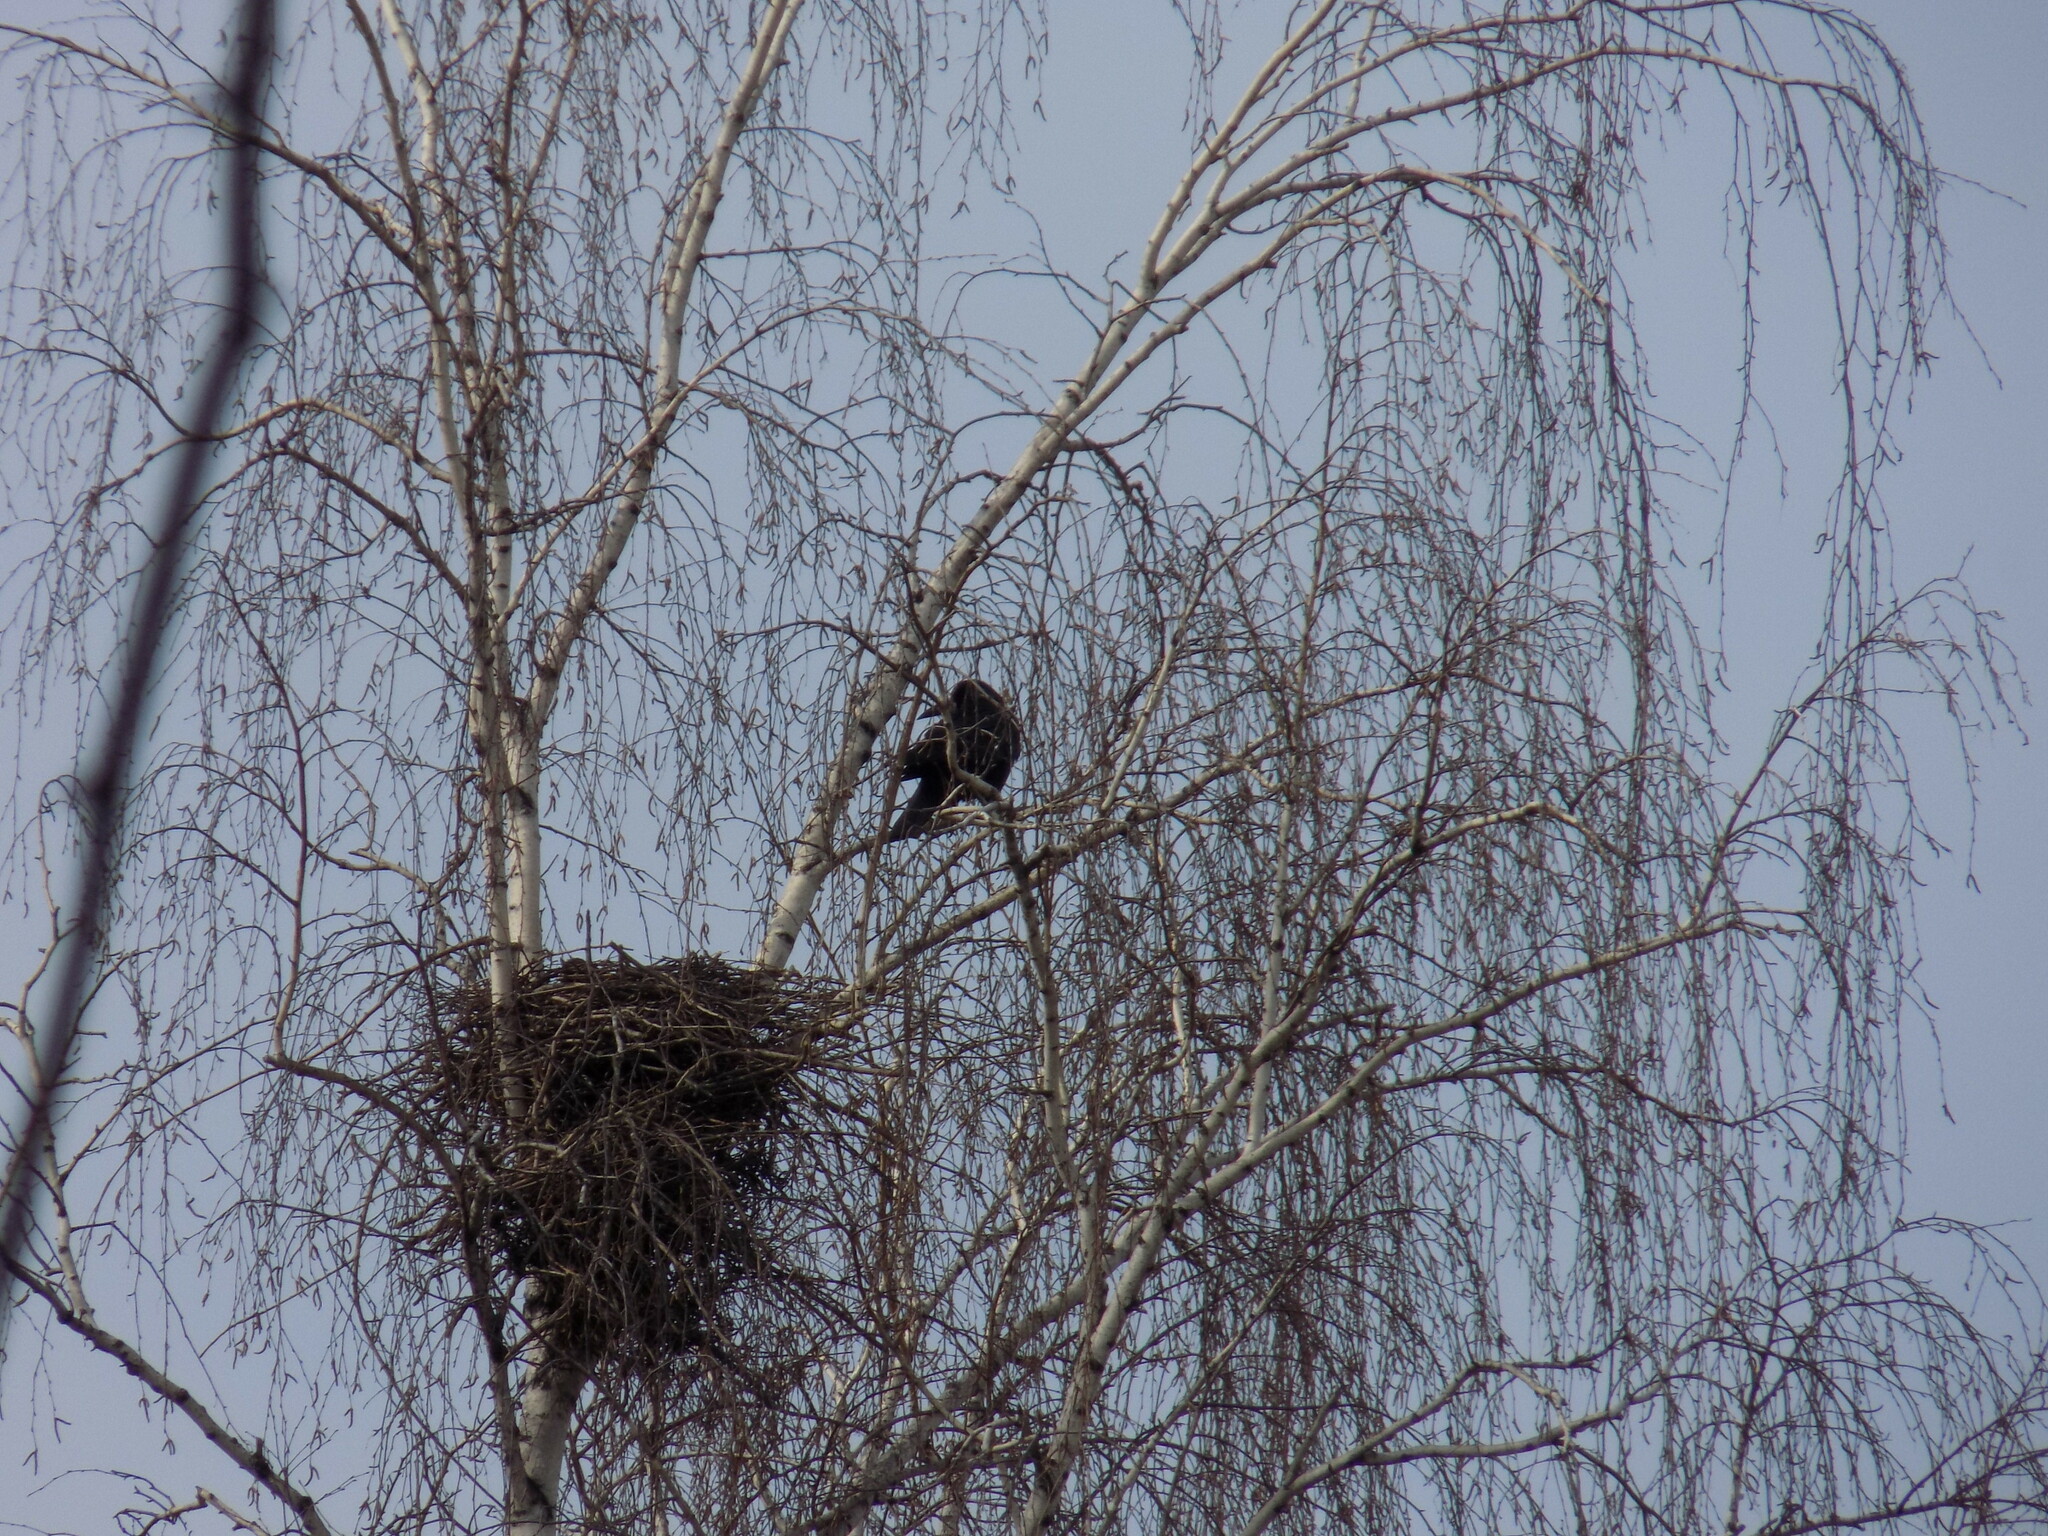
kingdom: Animalia
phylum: Chordata
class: Aves
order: Passeriformes
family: Corvidae
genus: Corvus
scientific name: Corvus frugilegus
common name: Rook
